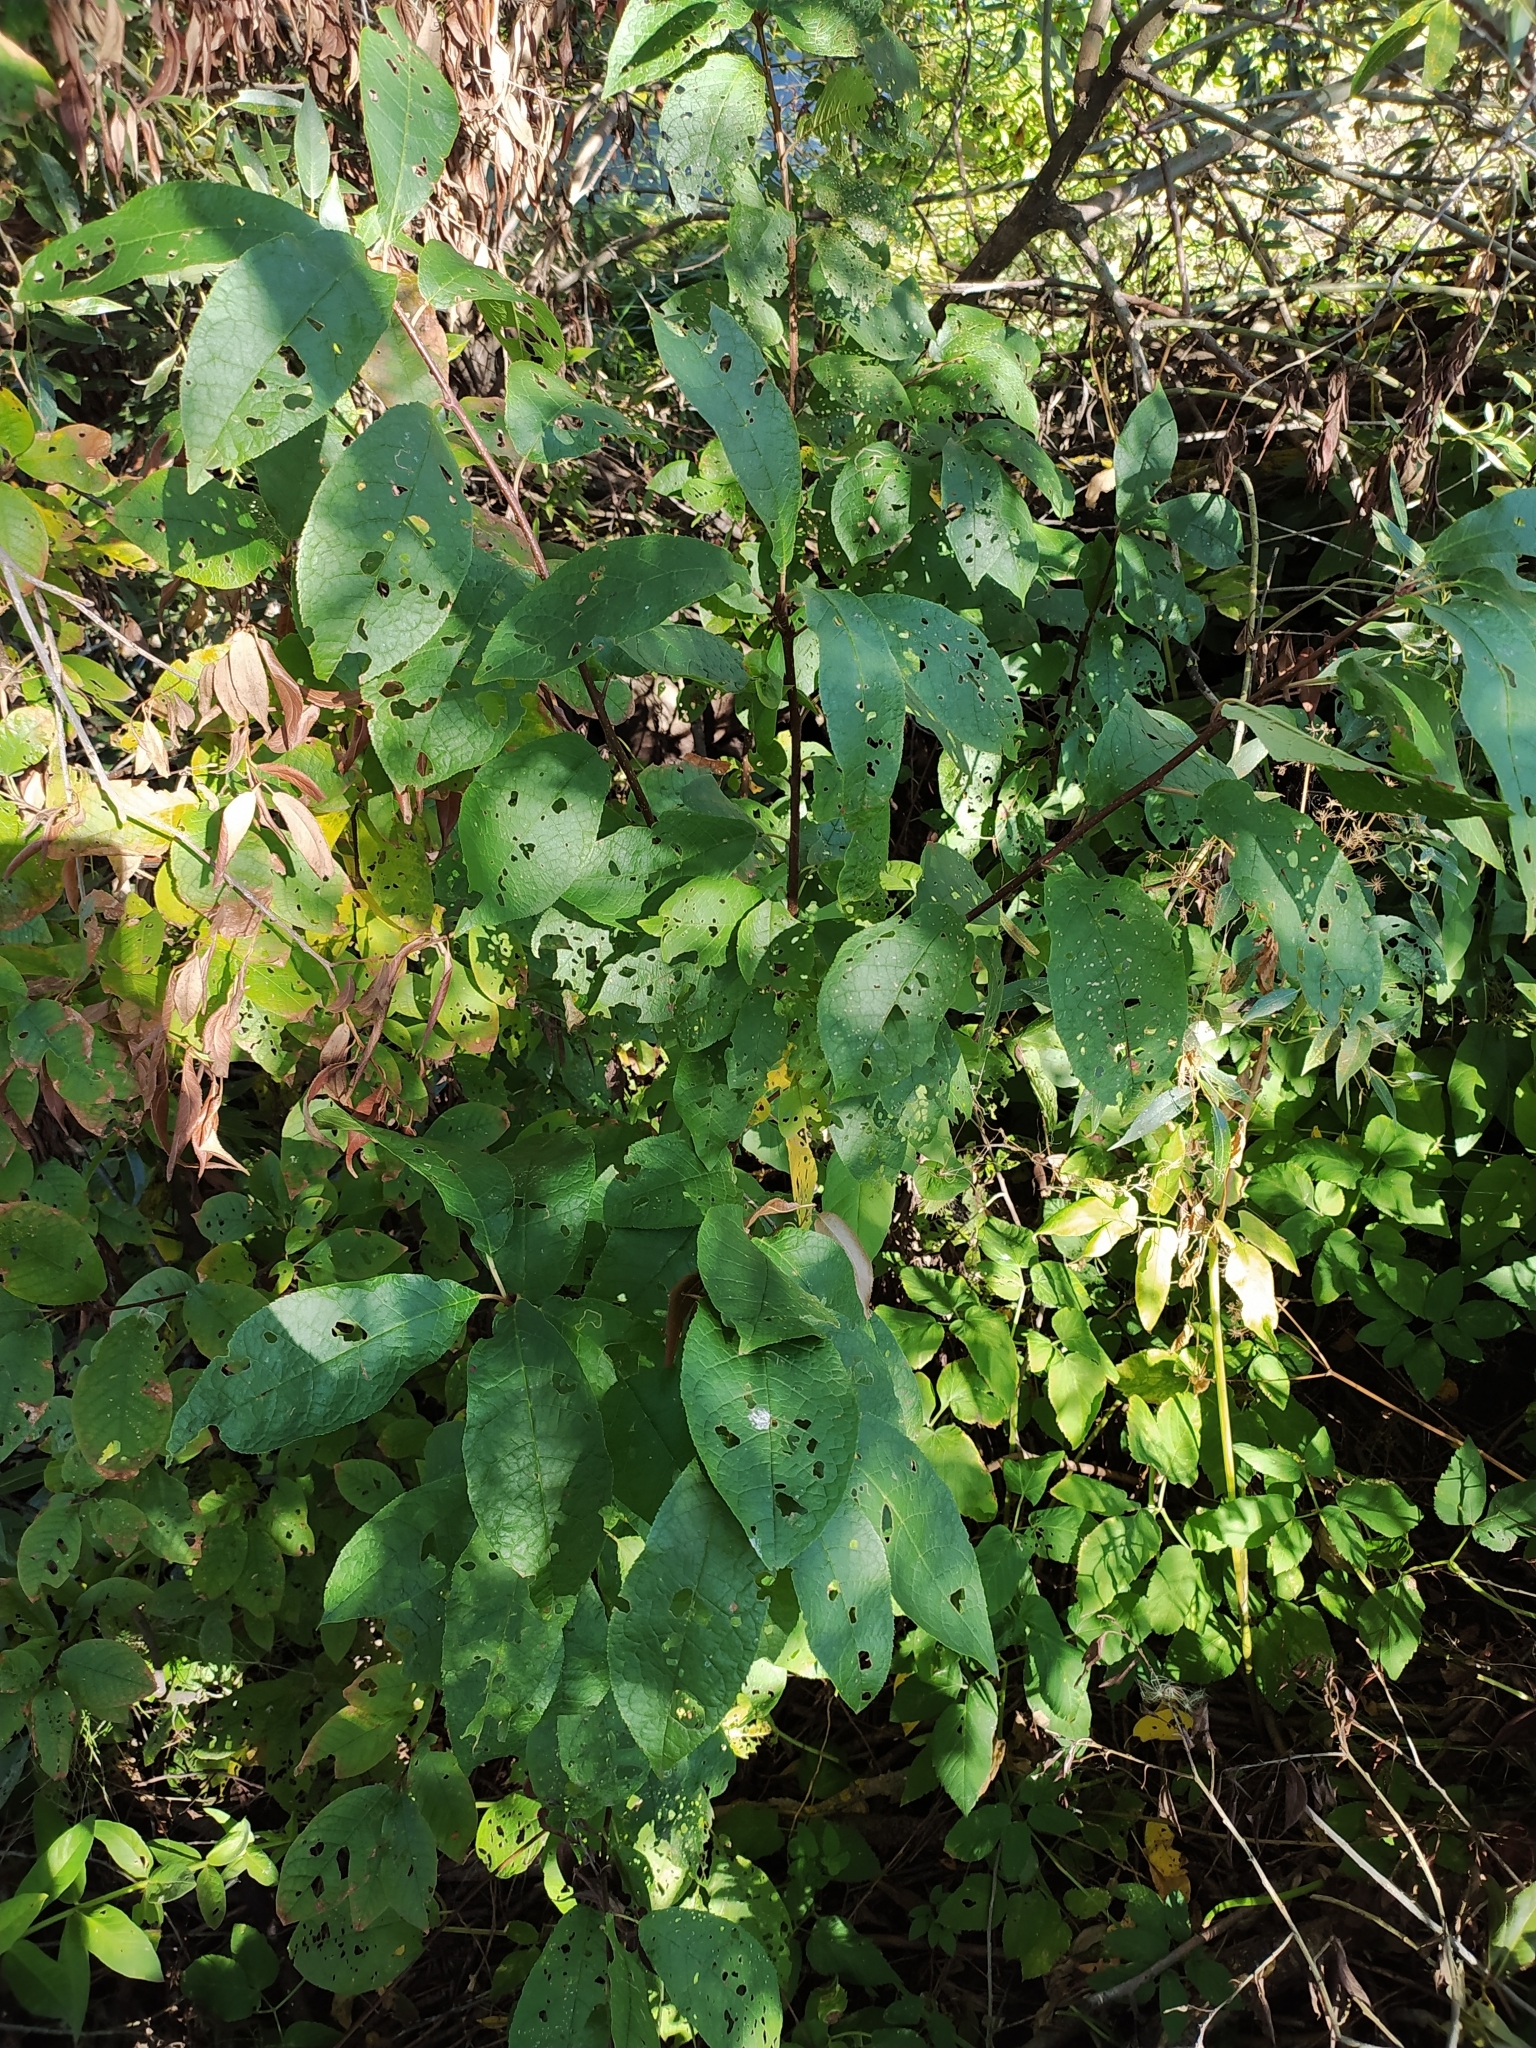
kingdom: Plantae
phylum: Tracheophyta
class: Magnoliopsida
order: Rosales
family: Rosaceae
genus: Prunus
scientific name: Prunus padus
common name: Bird cherry
